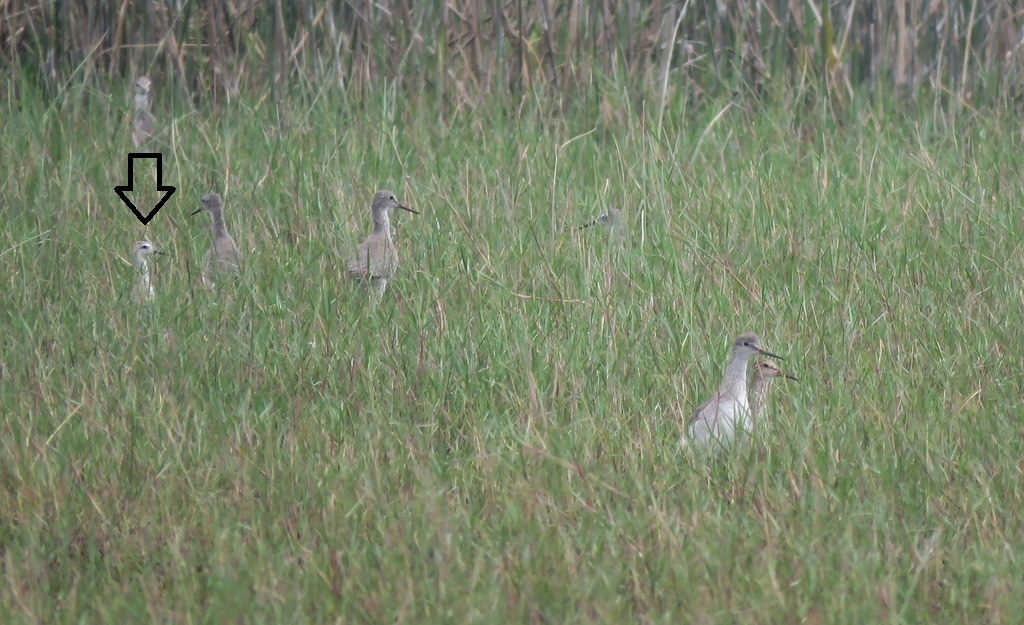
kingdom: Animalia
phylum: Chordata
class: Aves
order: Charadriiformes
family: Scolopacidae
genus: Phalaropus
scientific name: Phalaropus tricolor
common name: Wilson's phalarope
